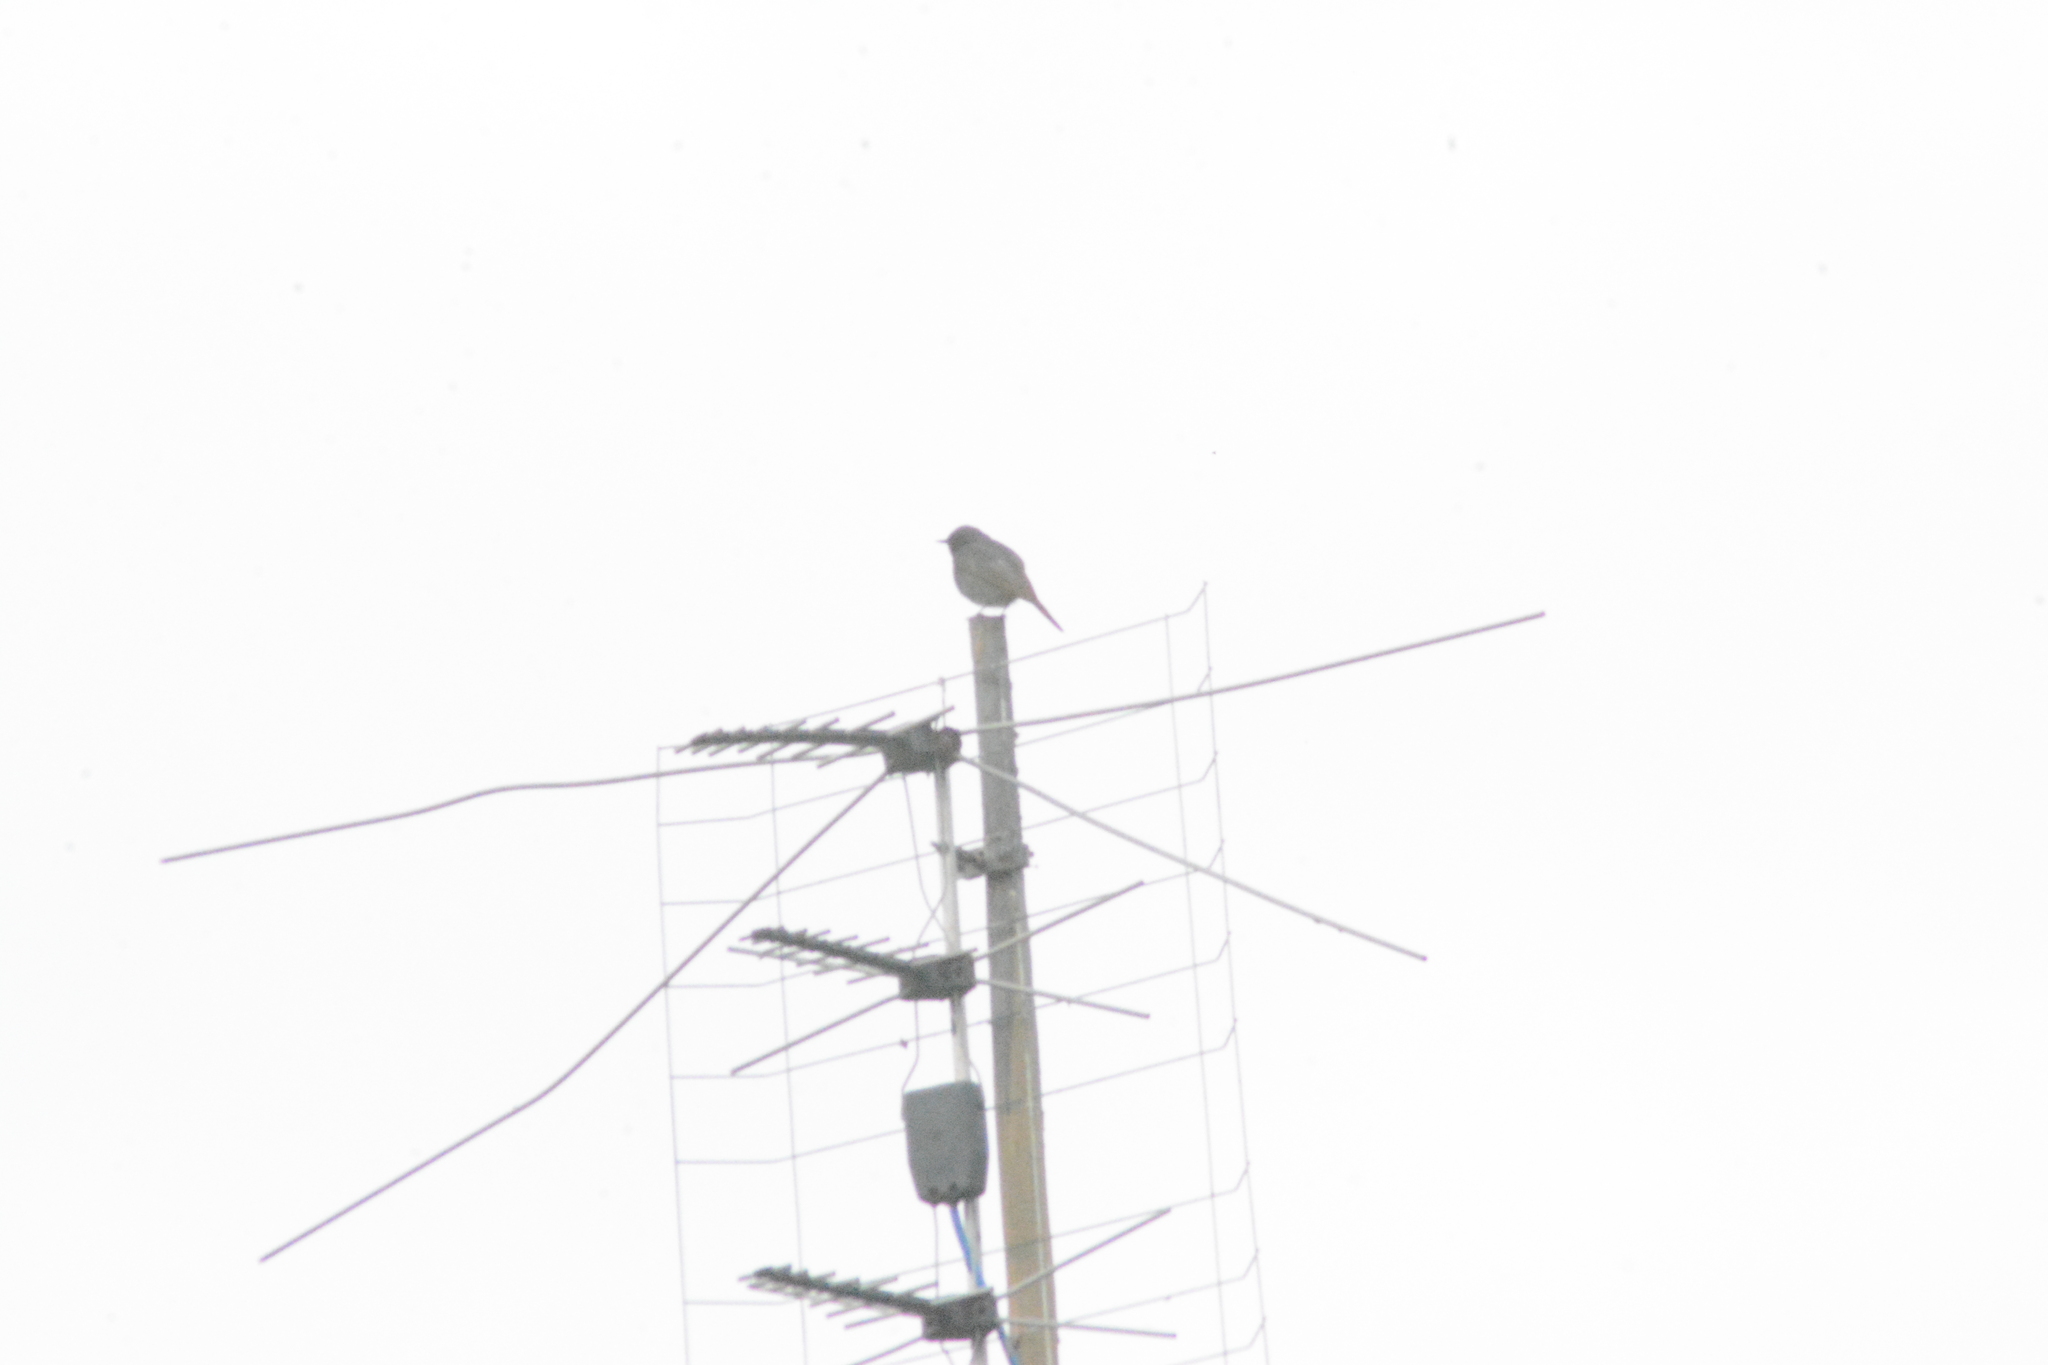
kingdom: Animalia
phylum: Chordata
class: Aves
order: Passeriformes
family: Muscicapidae
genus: Phoenicurus
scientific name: Phoenicurus ochruros
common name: Black redstart
